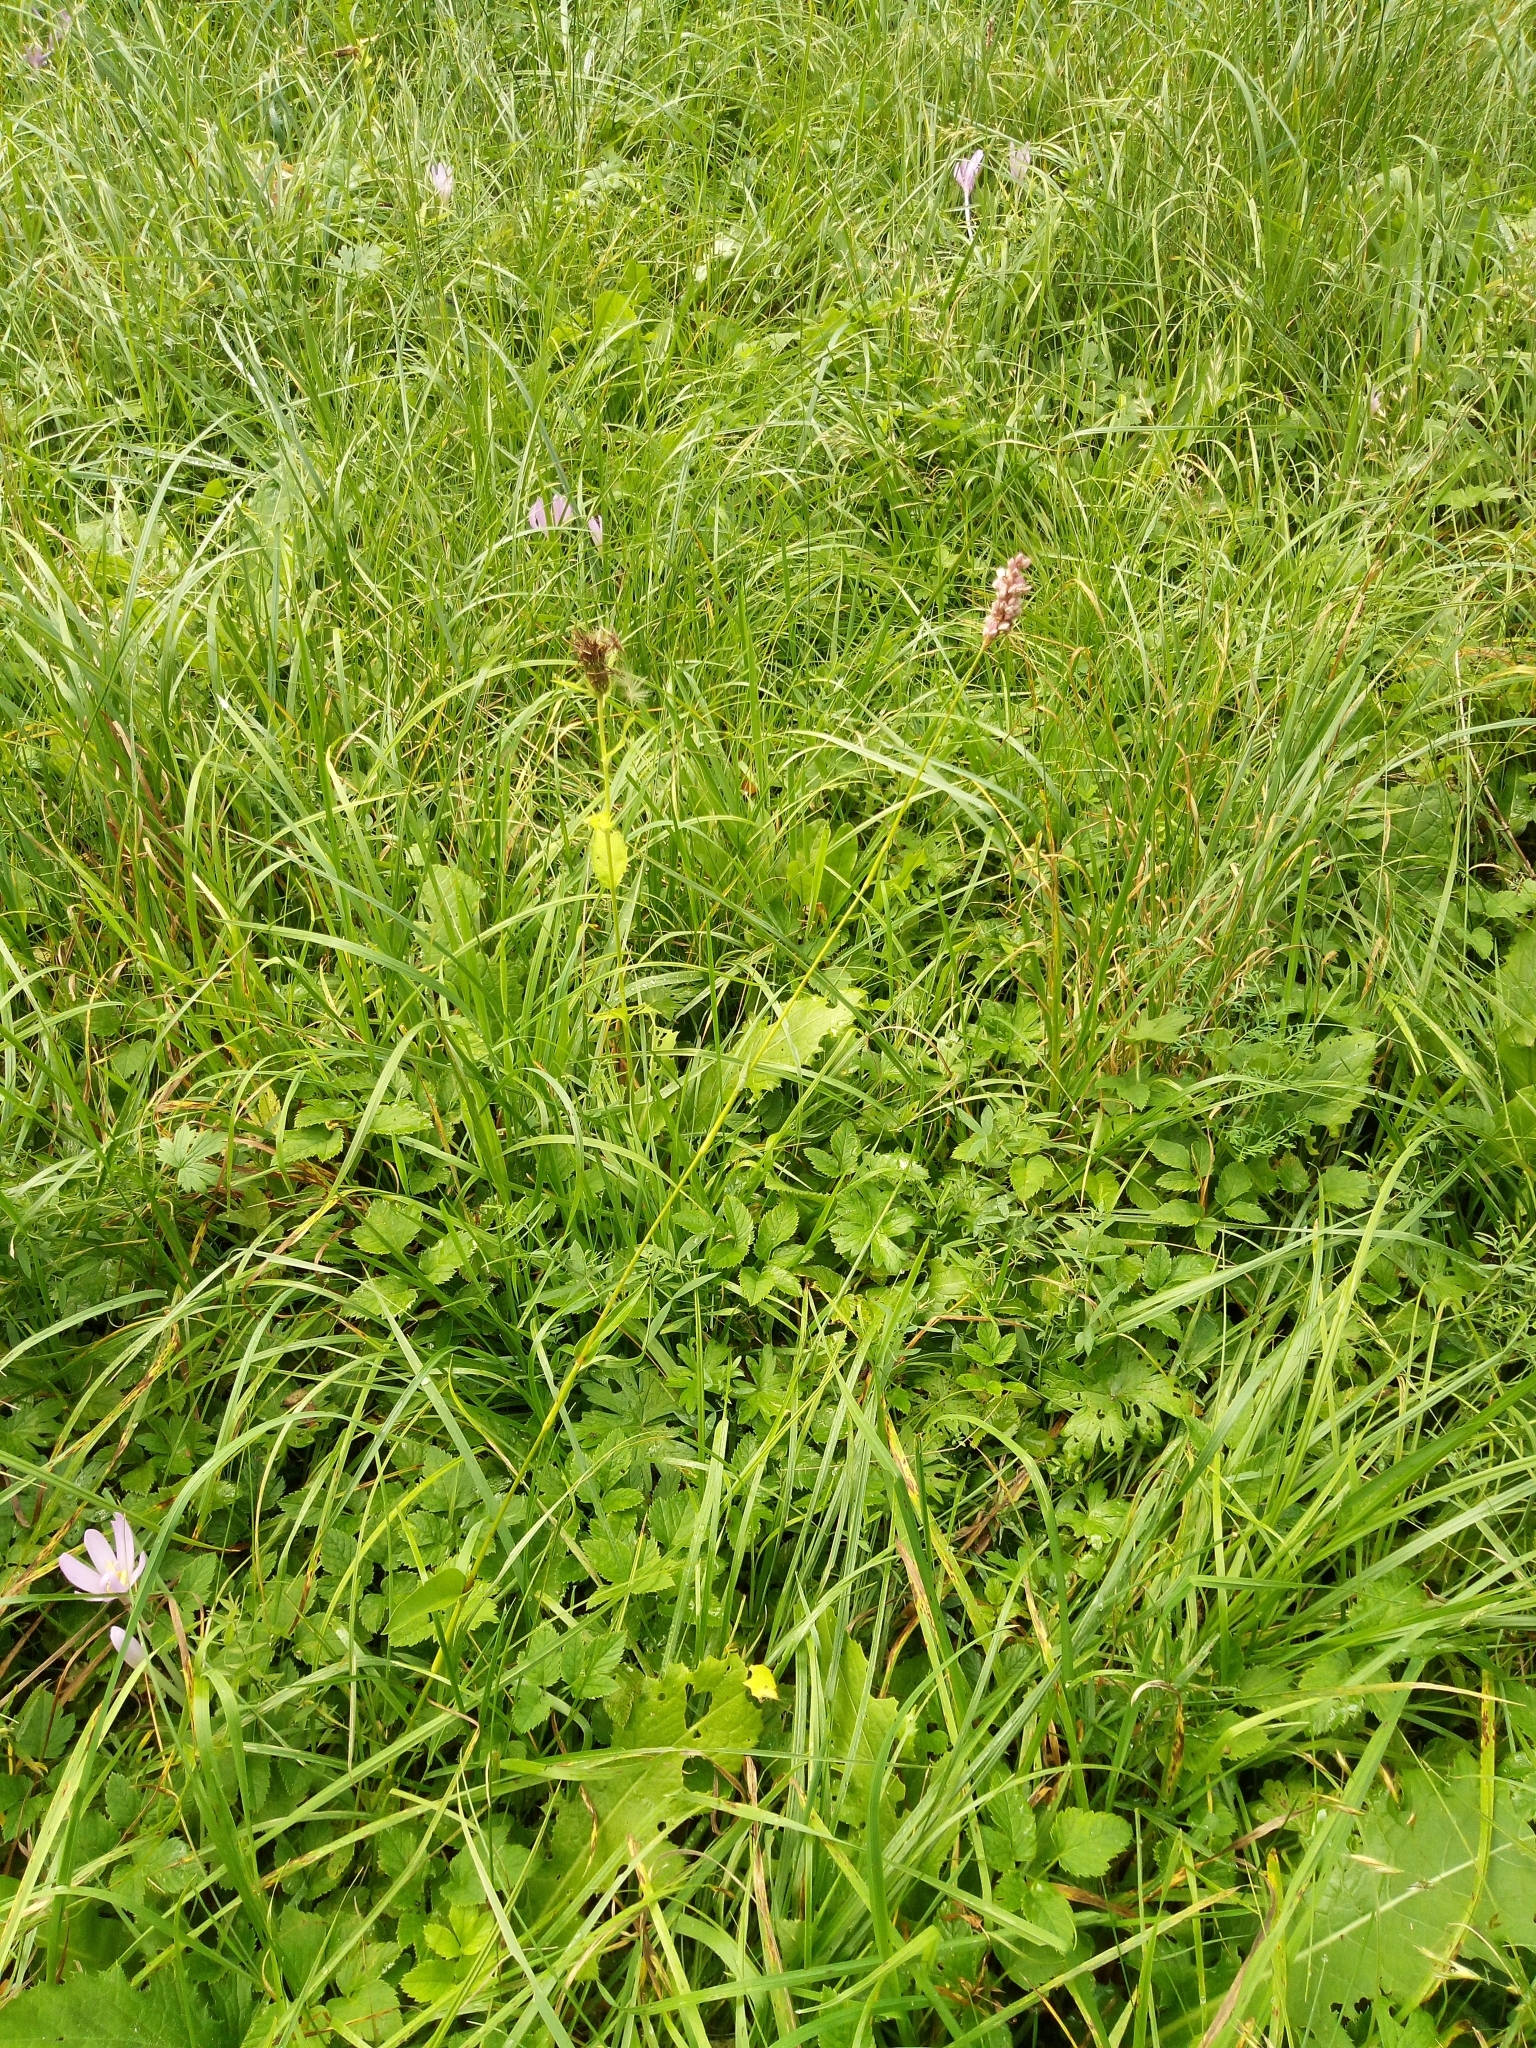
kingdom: Plantae
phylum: Tracheophyta
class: Magnoliopsida
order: Caryophyllales
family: Polygonaceae
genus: Bistorta
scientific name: Bistorta officinalis
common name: Common bistort
